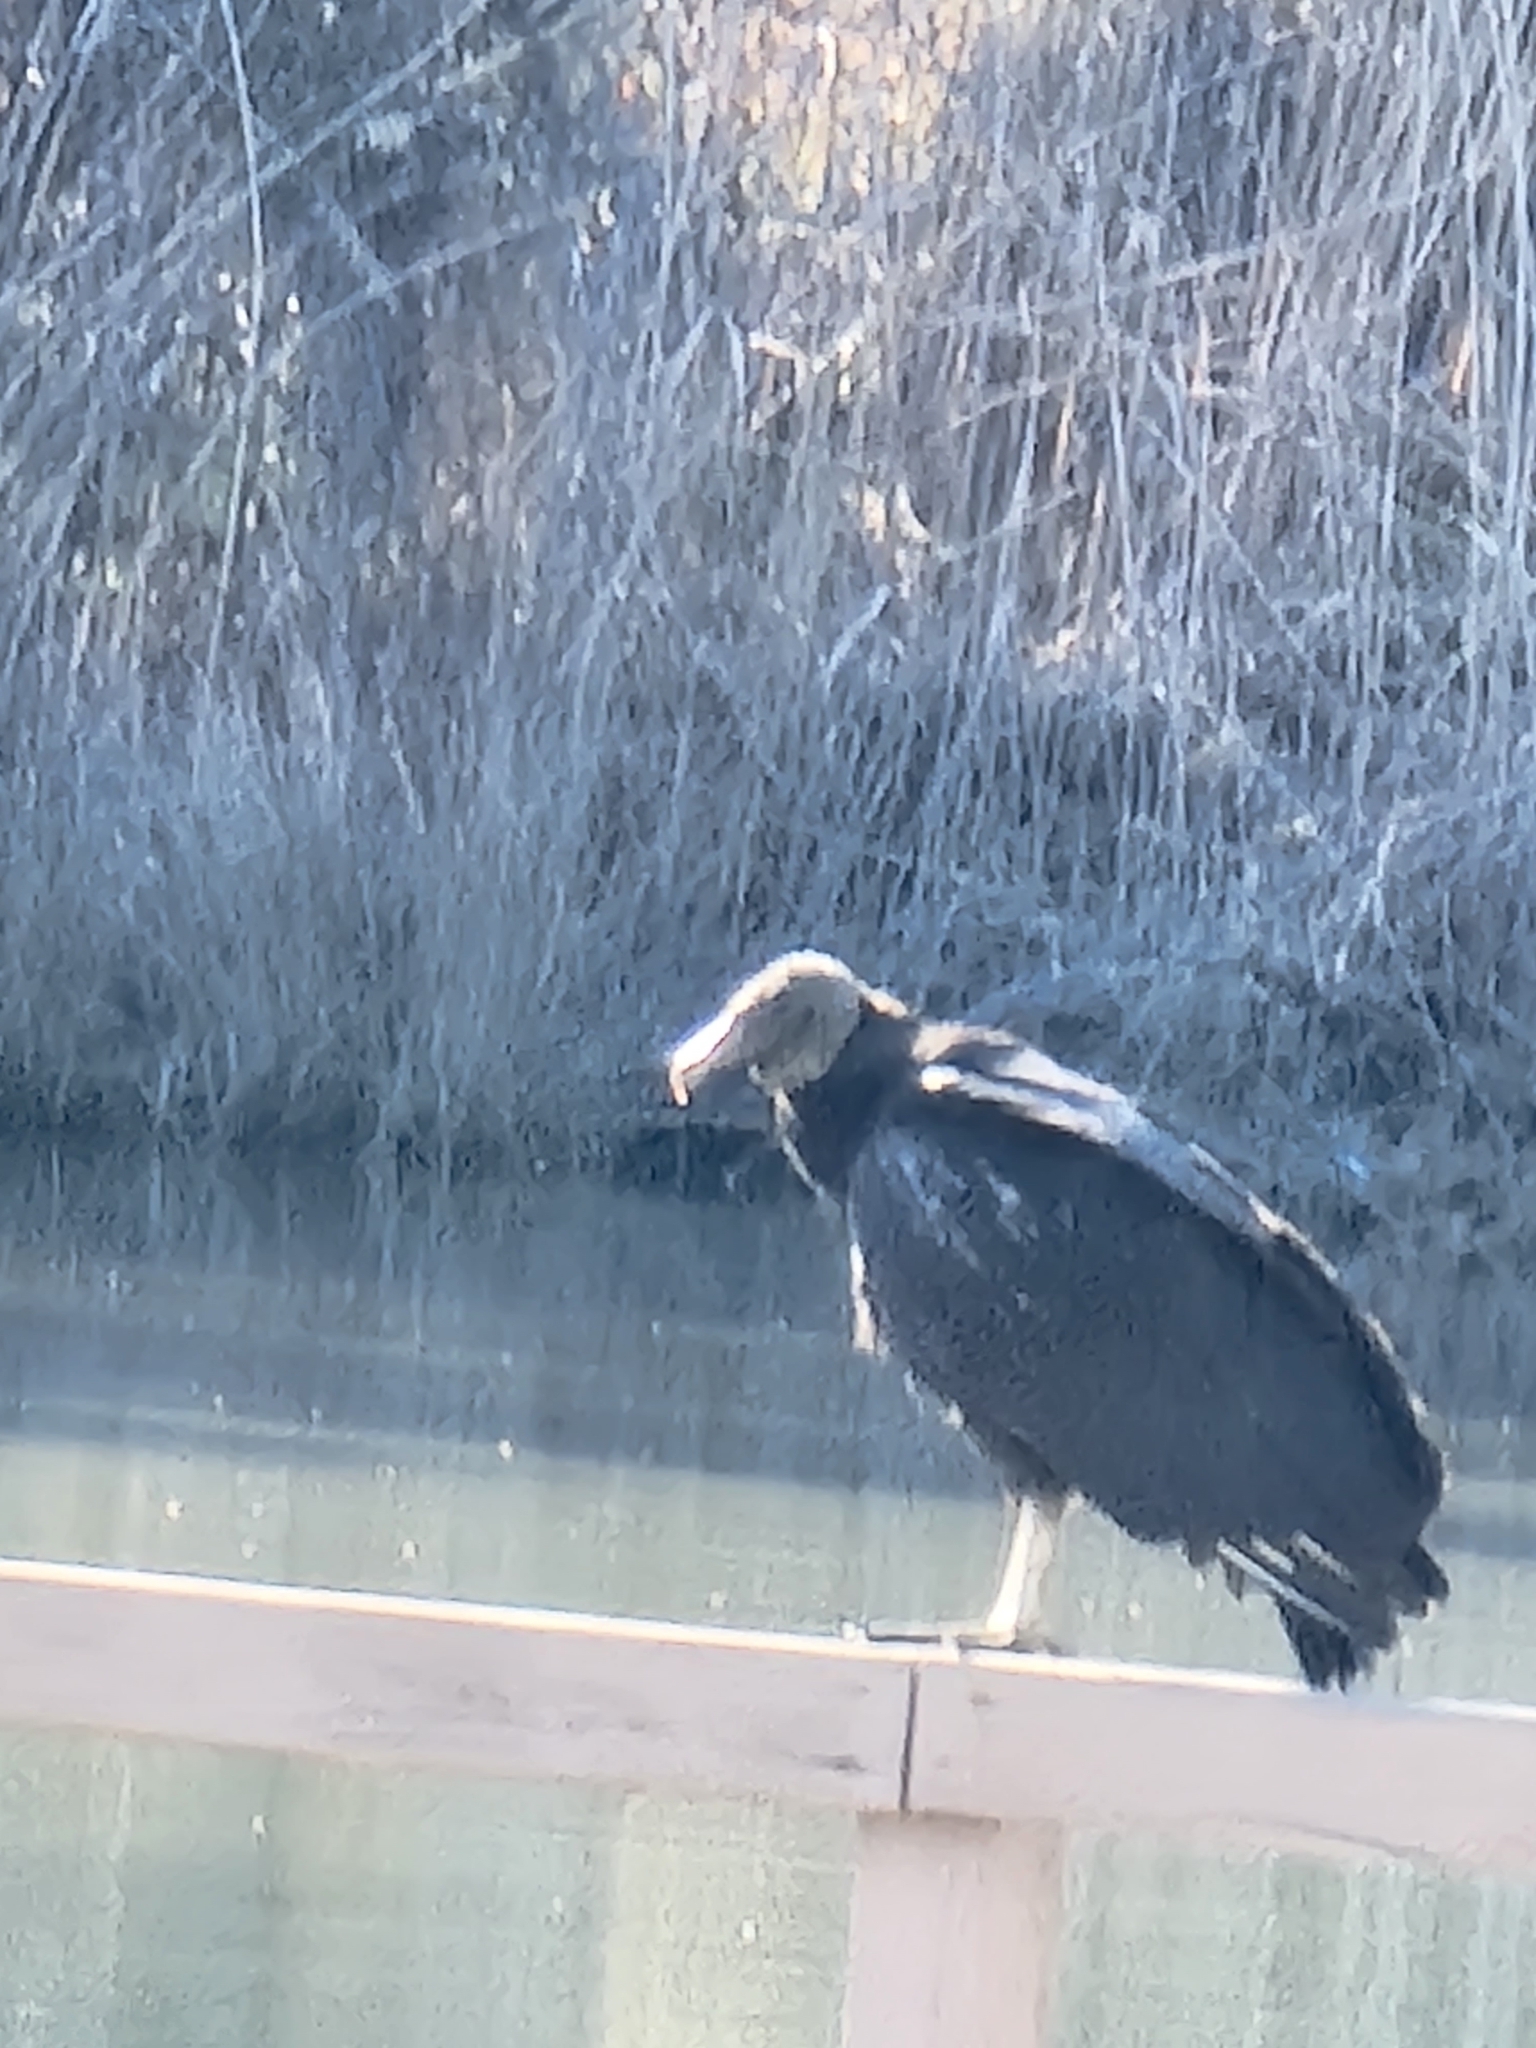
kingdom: Animalia
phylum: Chordata
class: Aves
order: Accipitriformes
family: Cathartidae
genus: Coragyps
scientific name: Coragyps atratus
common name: Black vulture
